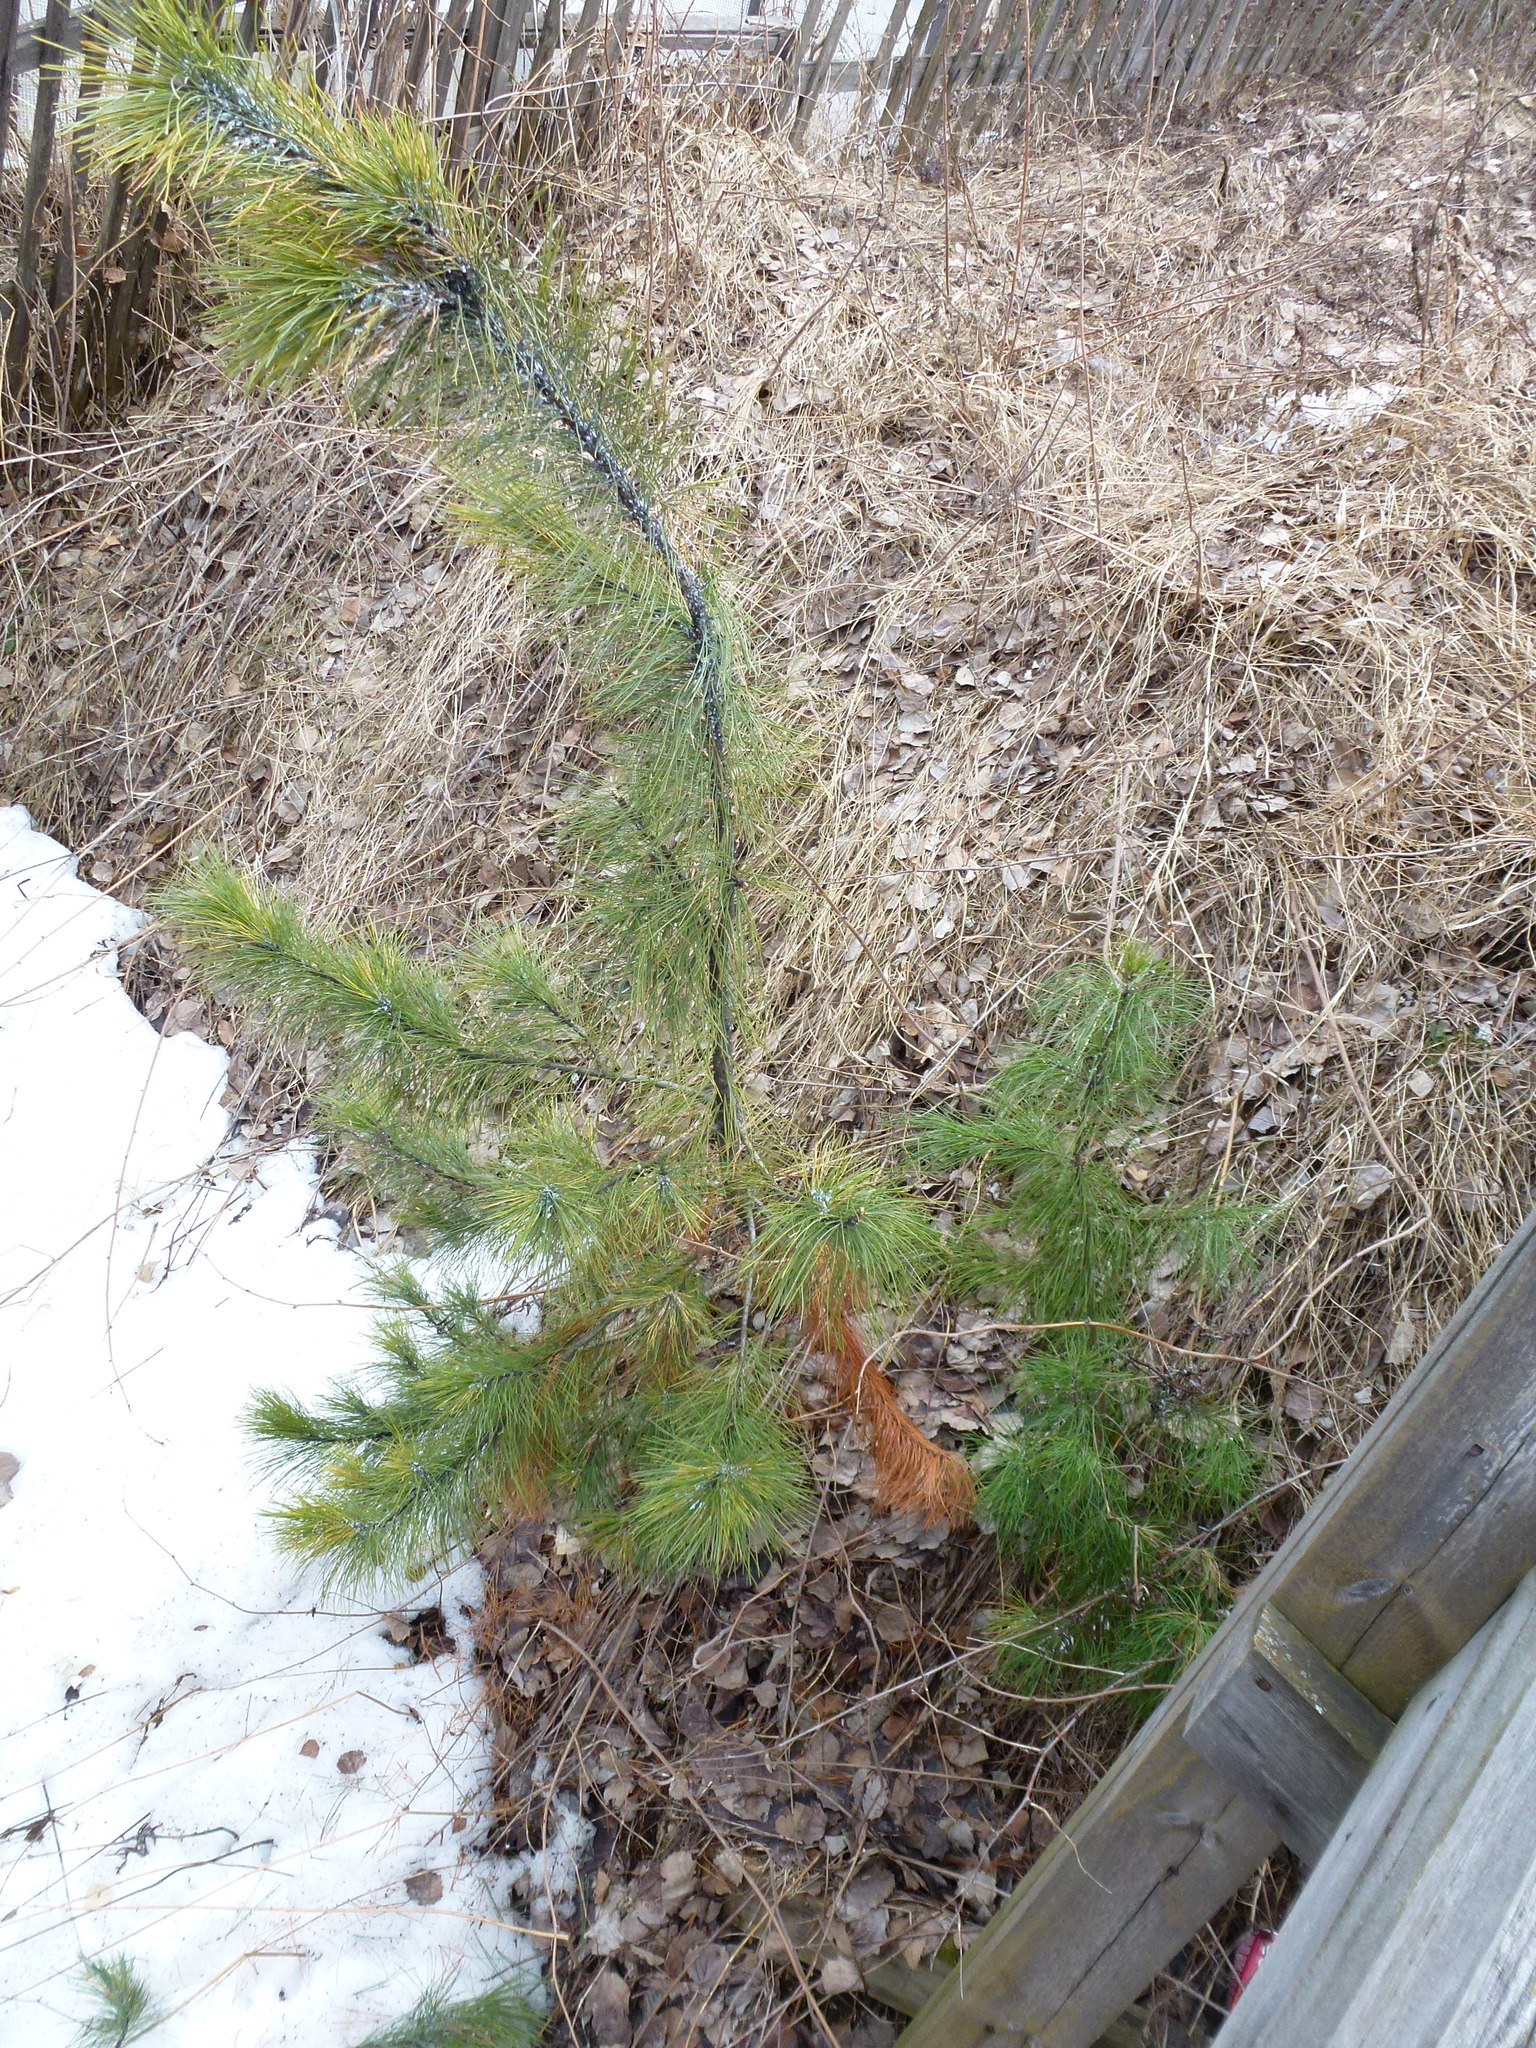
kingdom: Plantae
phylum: Tracheophyta
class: Pinopsida
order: Pinales
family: Pinaceae
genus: Pinus
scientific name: Pinus sibirica
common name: Siberian pine
